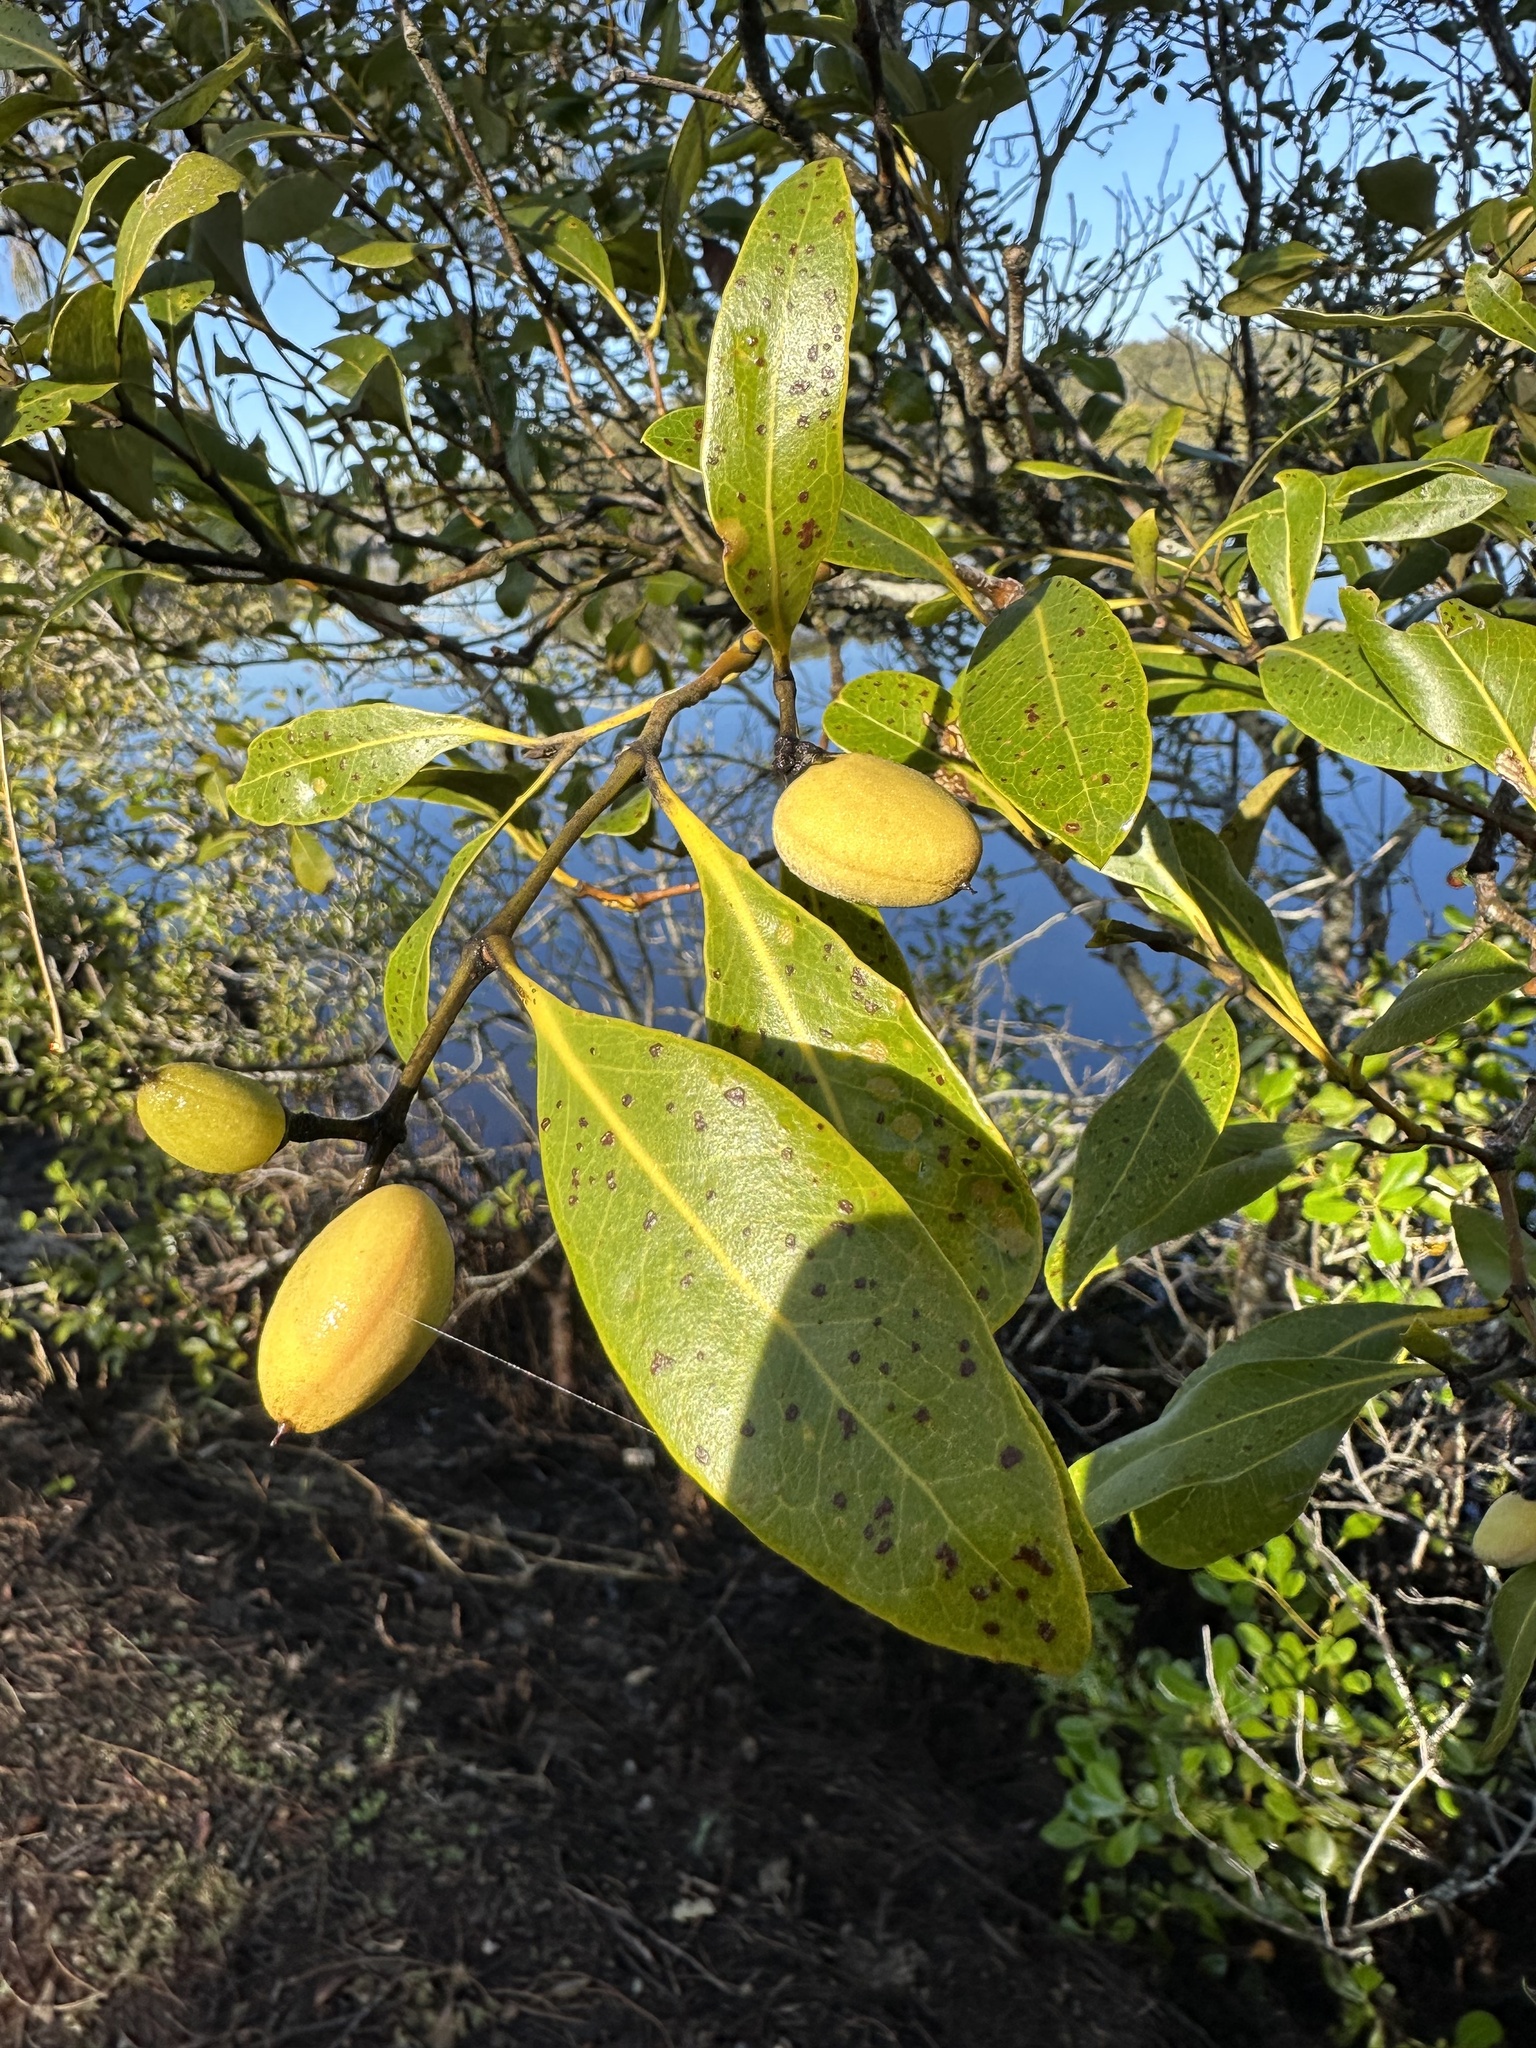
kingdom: Plantae
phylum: Tracheophyta
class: Magnoliopsida
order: Lamiales
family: Acanthaceae
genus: Avicennia
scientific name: Avicennia marina
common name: Gray mangrove
